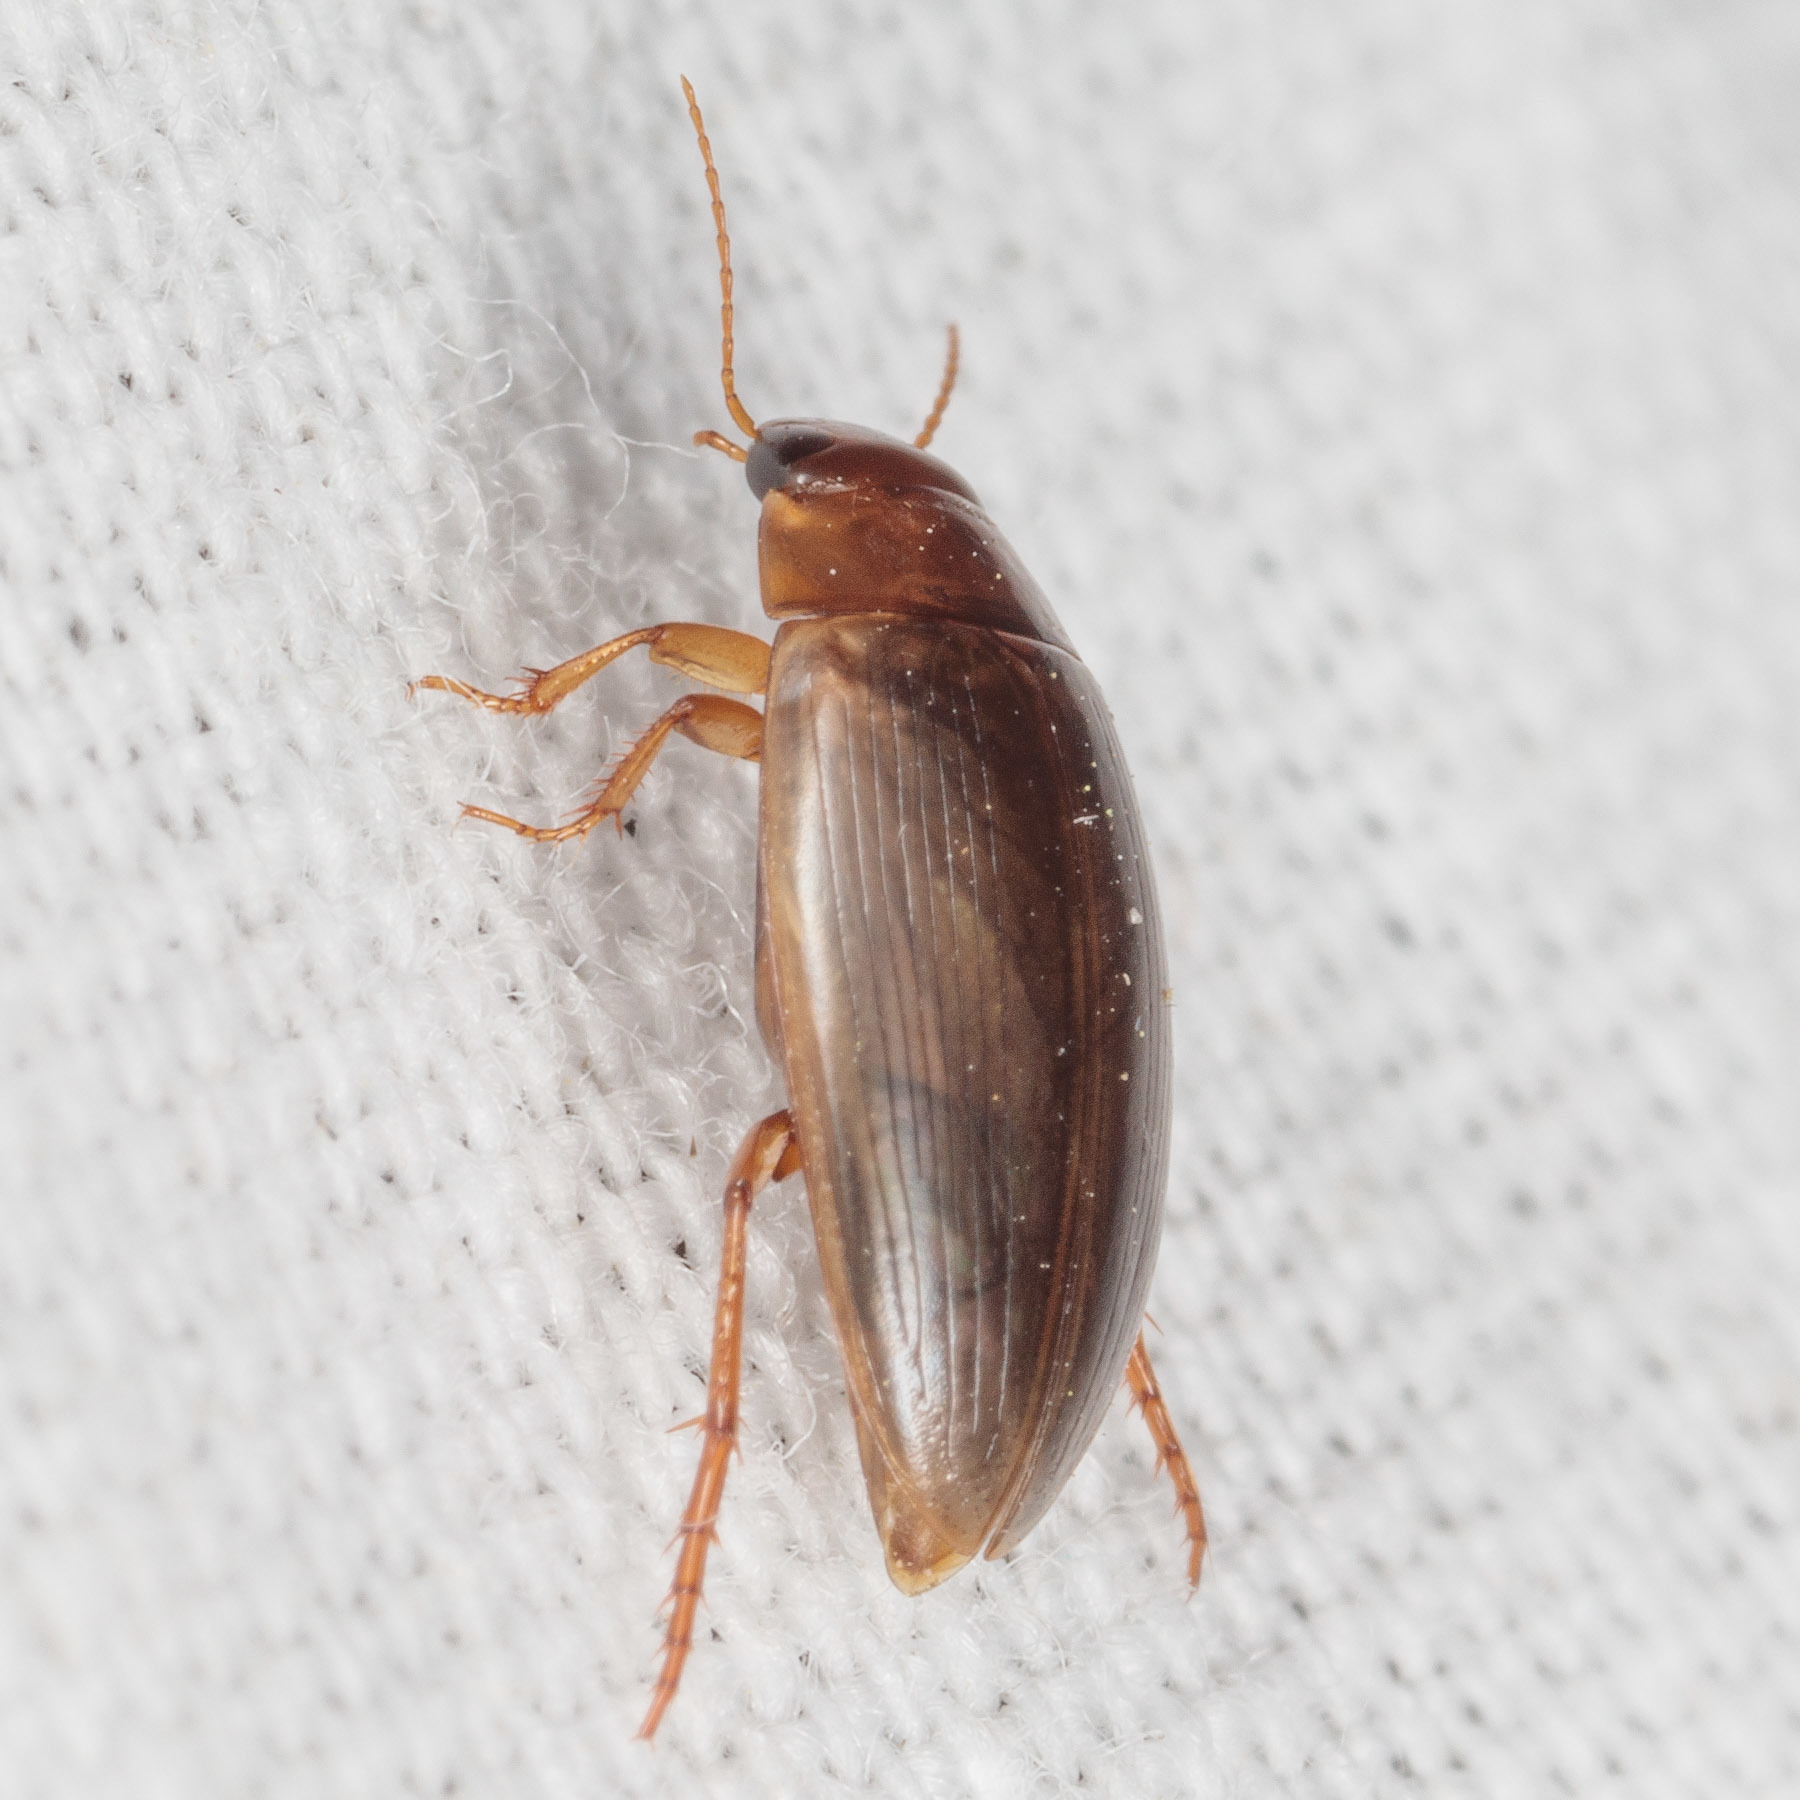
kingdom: Animalia
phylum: Arthropoda
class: Insecta
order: Coleoptera
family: Dytiscidae
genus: Copelatus
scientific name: Copelatus chevrolati
